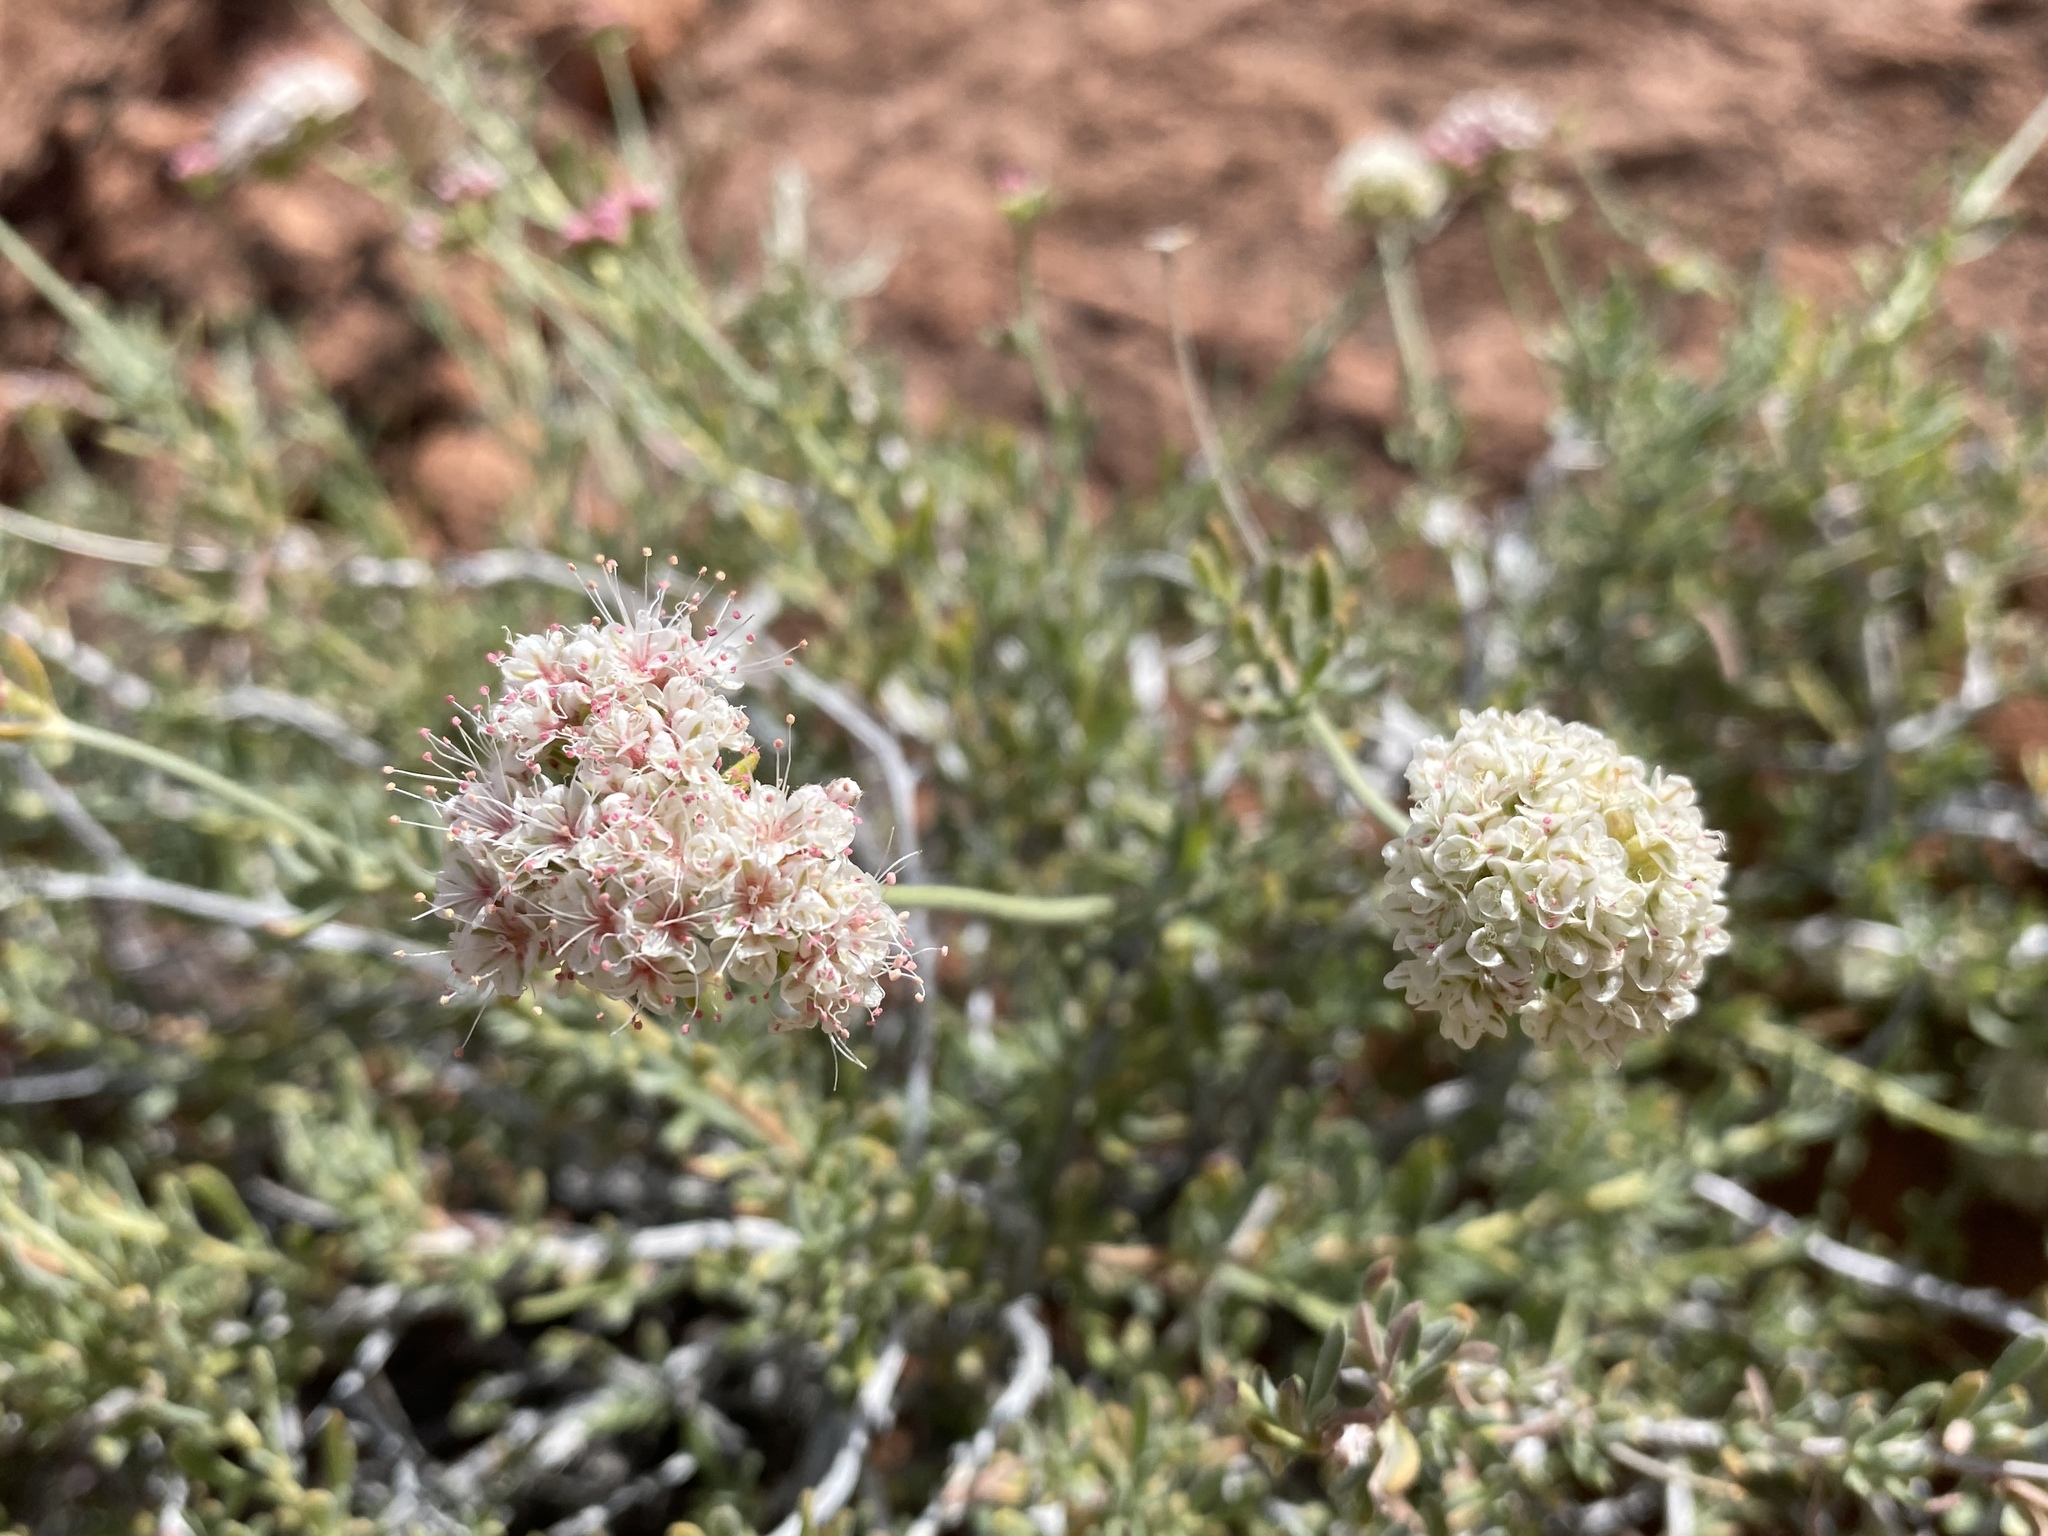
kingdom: Plantae
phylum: Tracheophyta
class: Magnoliopsida
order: Caryophyllales
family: Polygonaceae
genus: Eriogonum
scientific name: Eriogonum fasciculatum
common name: California wild buckwheat
